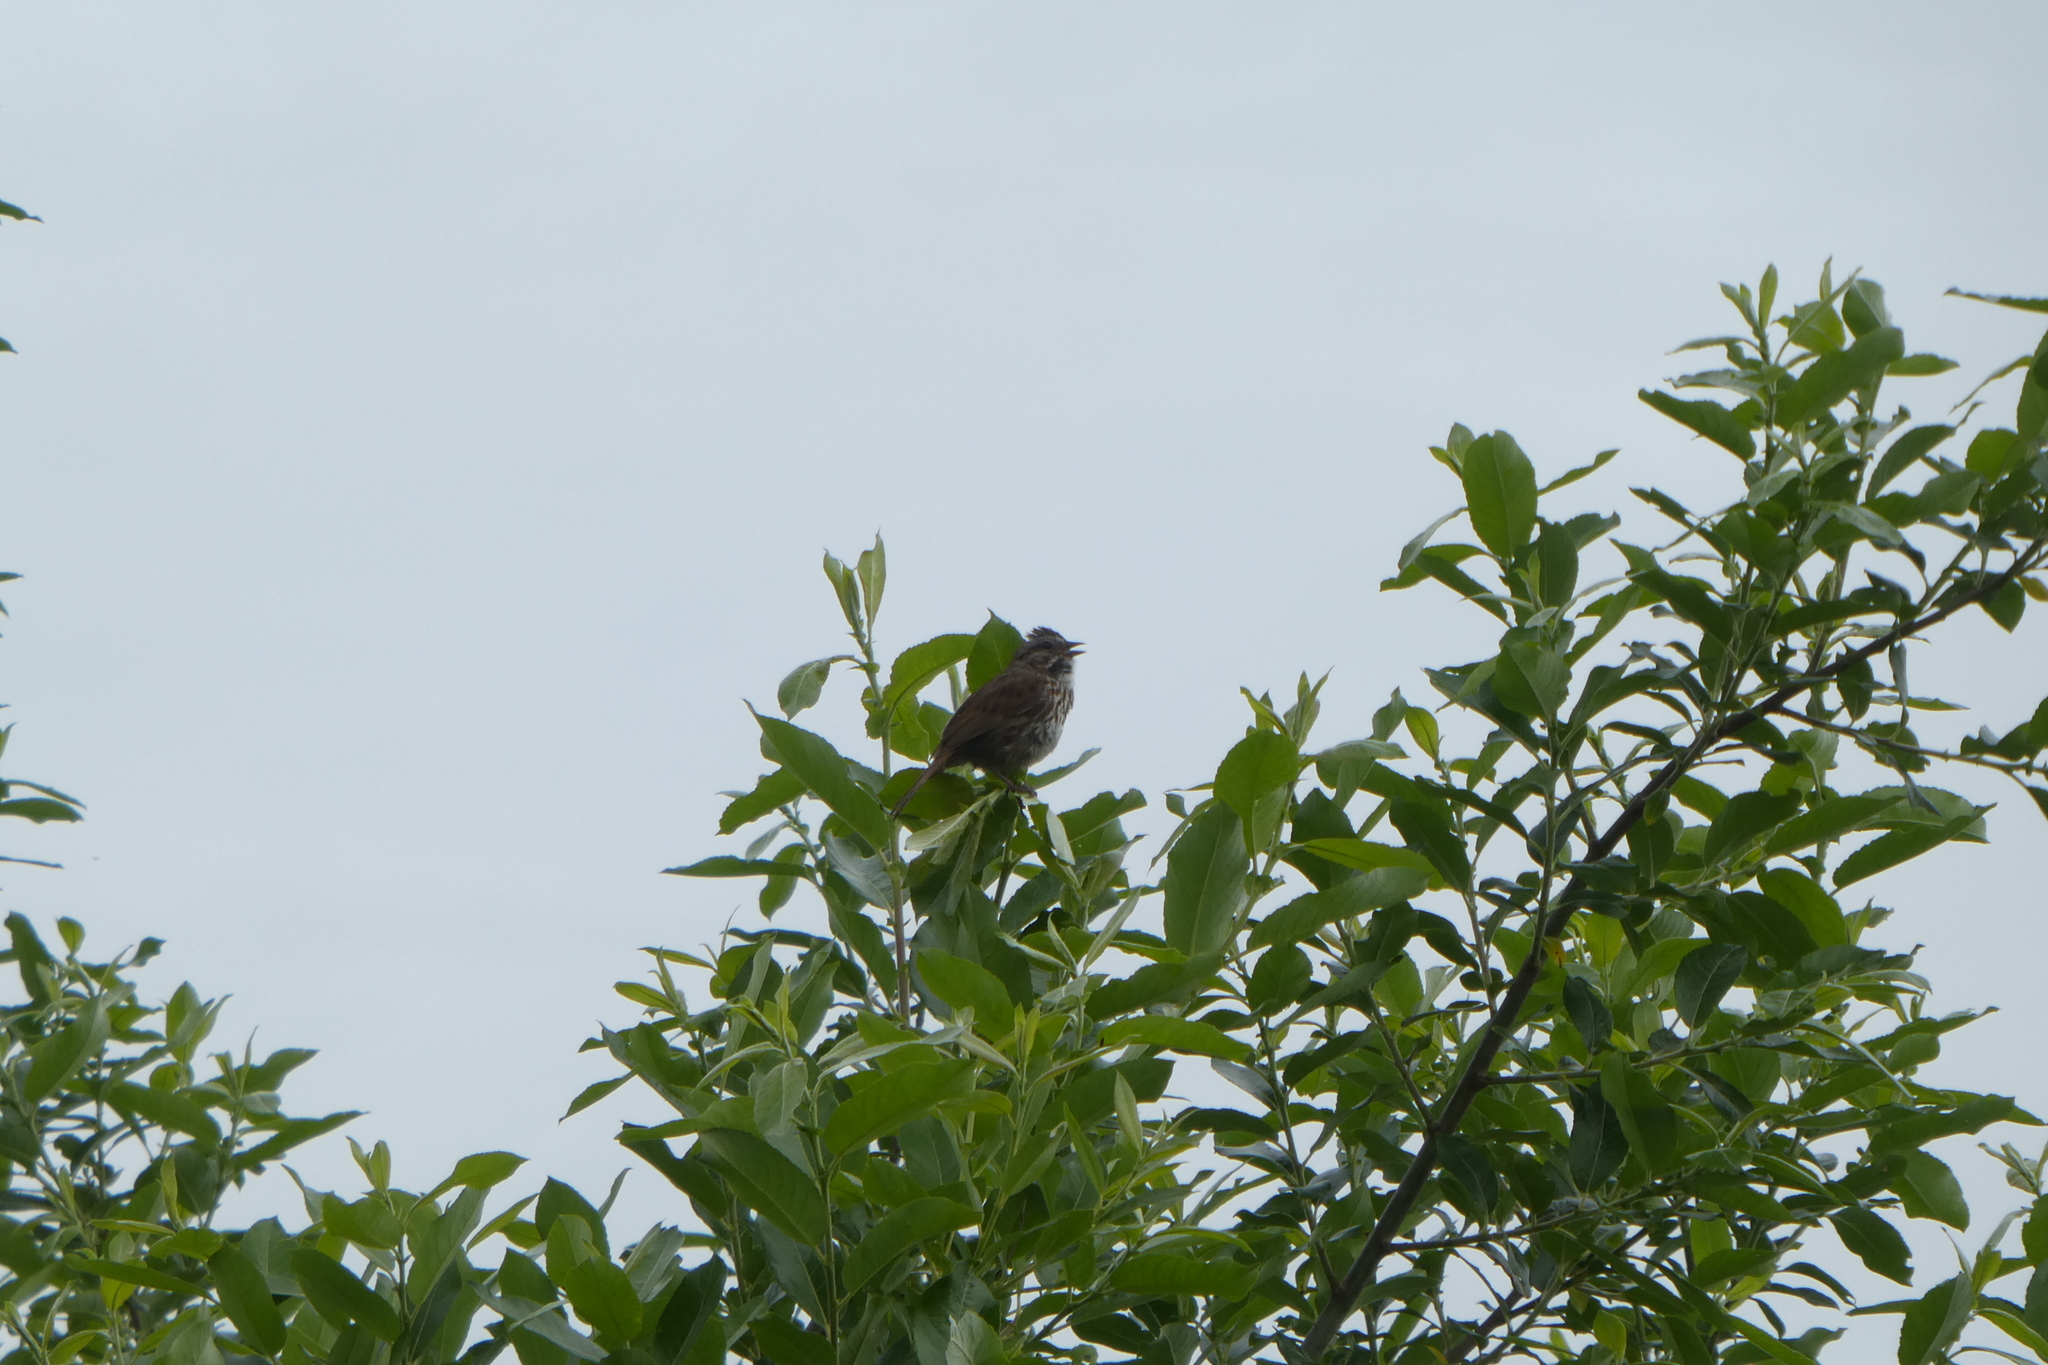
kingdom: Animalia
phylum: Chordata
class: Aves
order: Passeriformes
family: Passerellidae
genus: Melospiza
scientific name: Melospiza melodia
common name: Song sparrow
